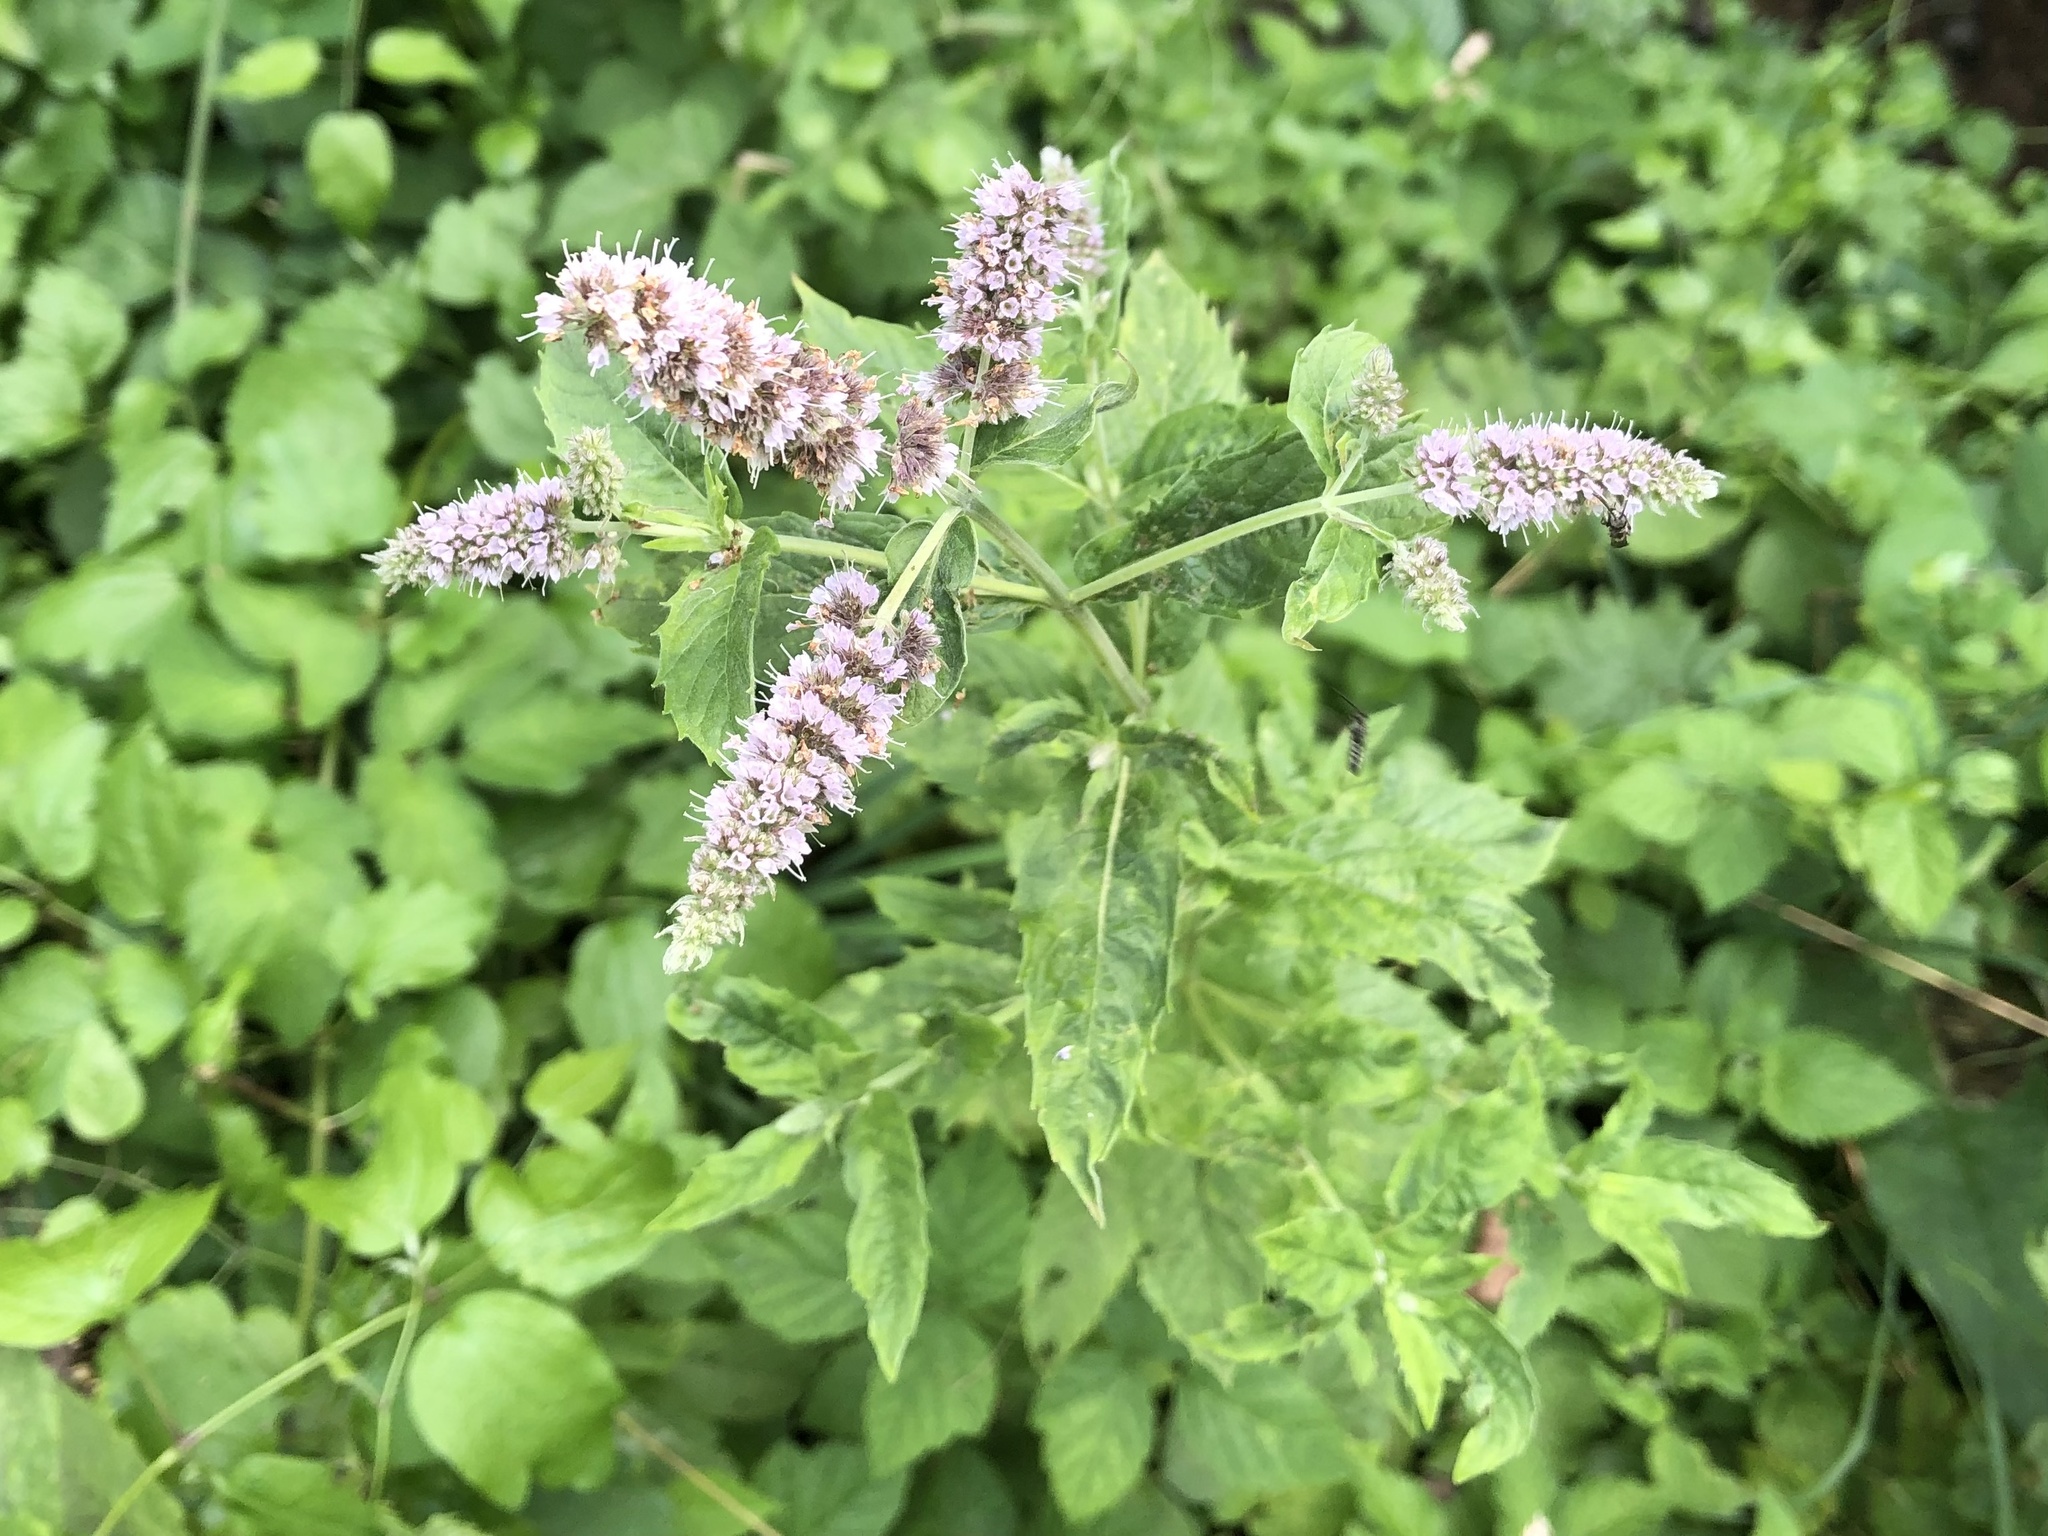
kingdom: Plantae
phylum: Tracheophyta
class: Magnoliopsida
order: Lamiales
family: Lamiaceae
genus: Mentha
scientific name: Mentha longifolia
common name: Horse mint
